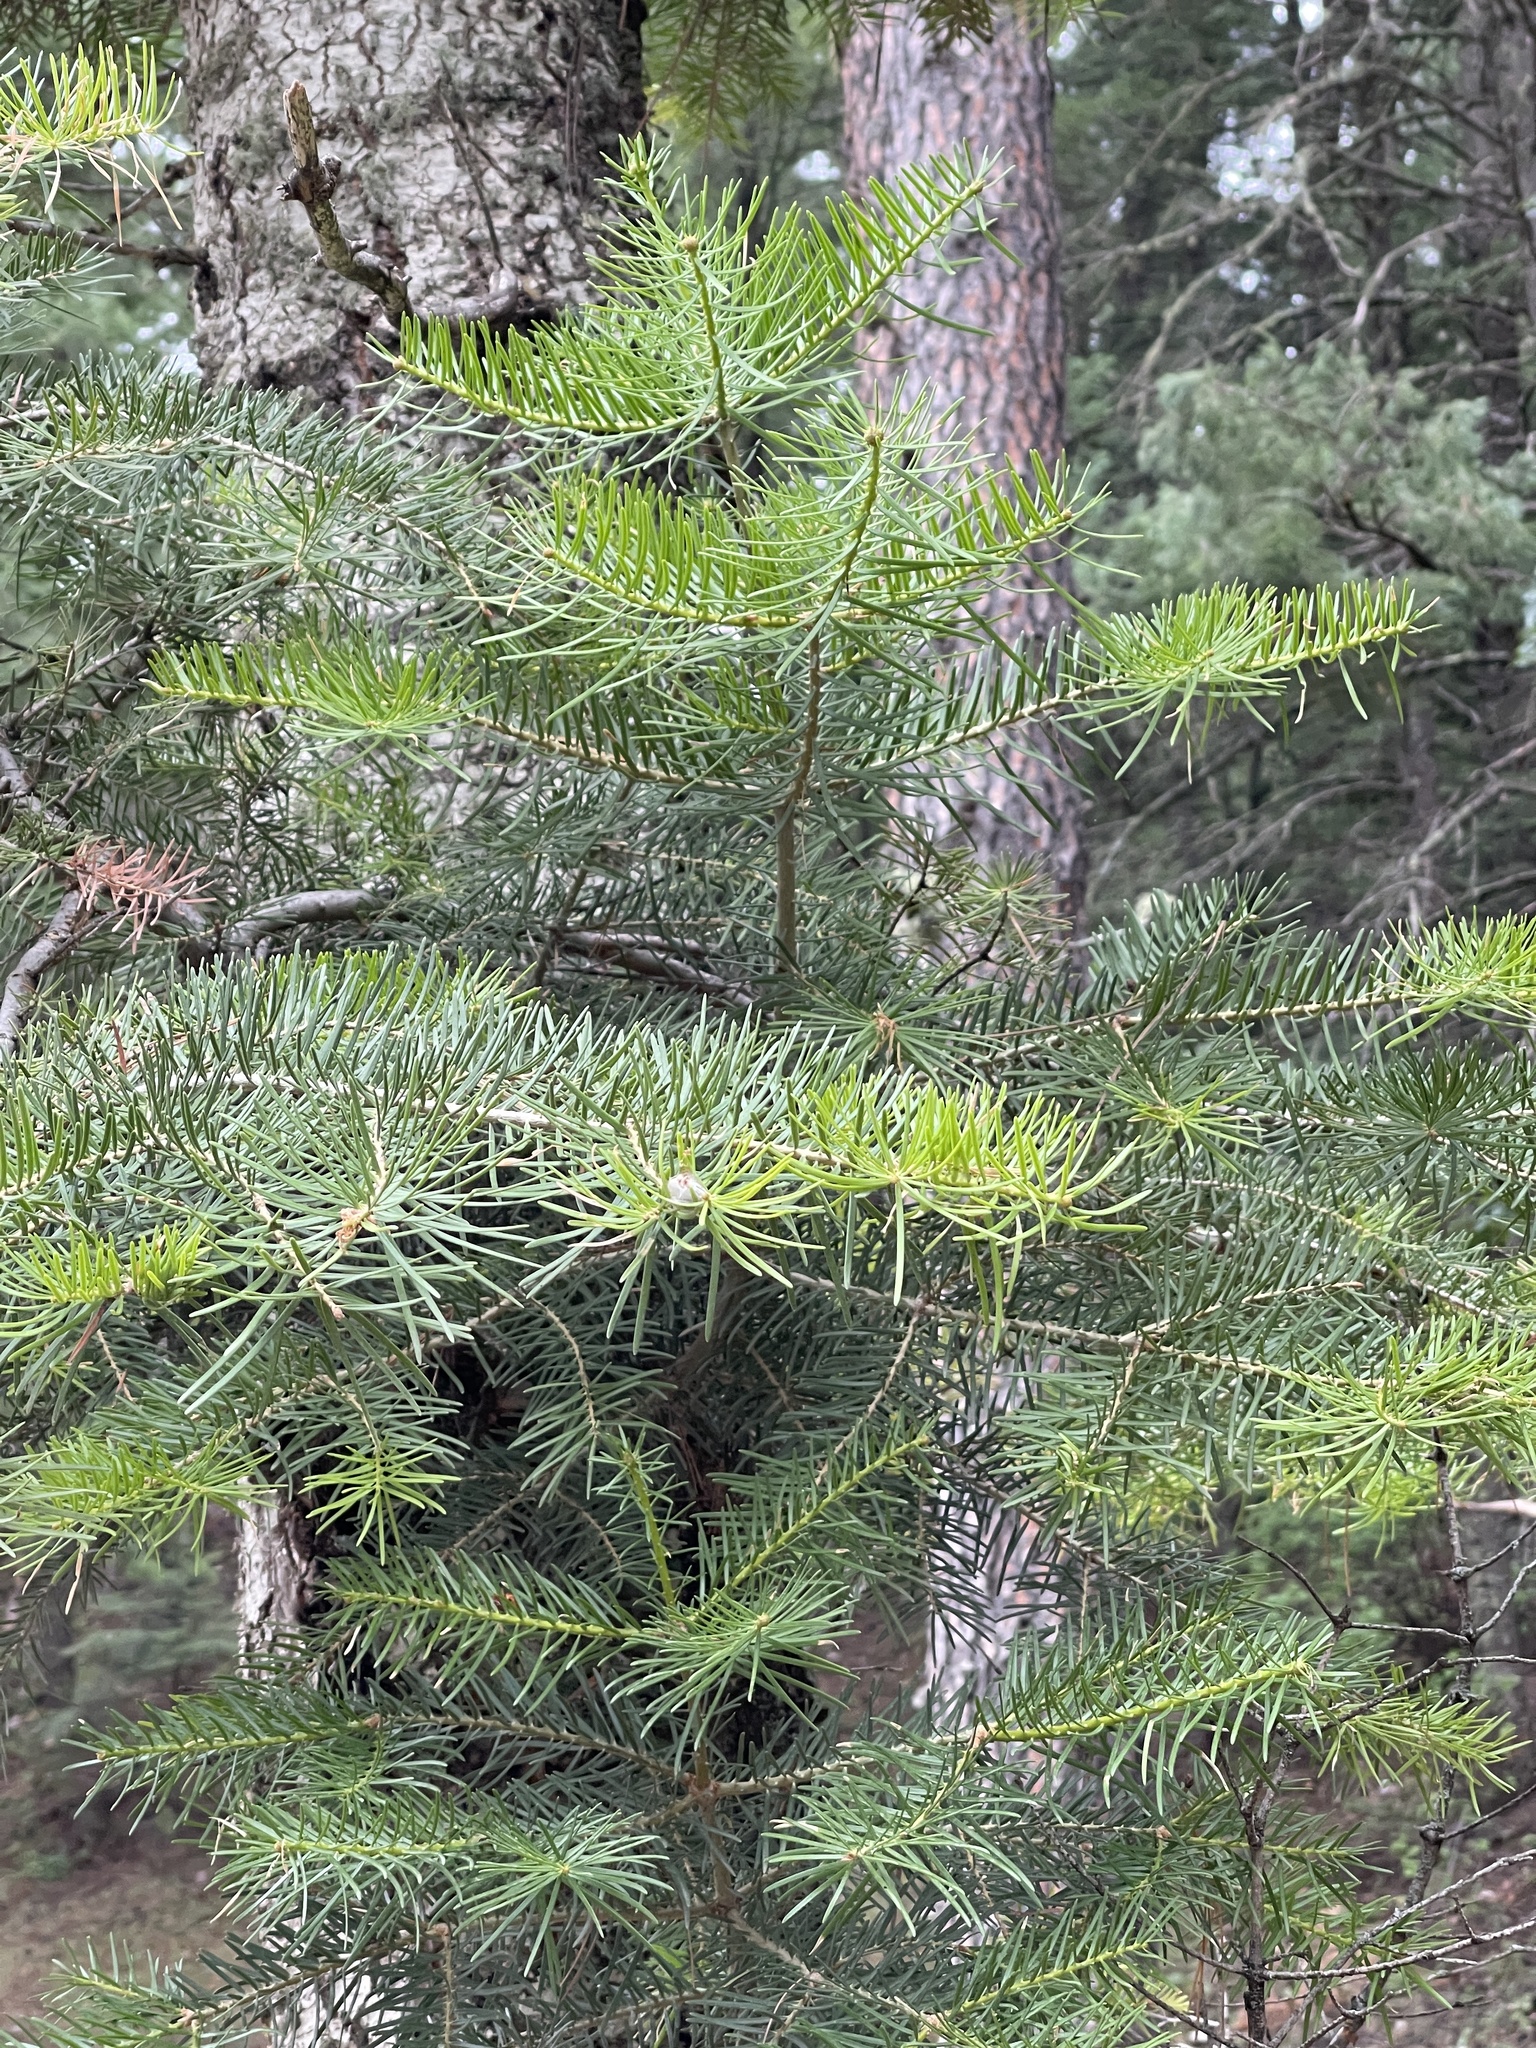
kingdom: Plantae
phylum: Tracheophyta
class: Pinopsida
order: Pinales
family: Pinaceae
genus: Abies
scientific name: Abies concolor
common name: Colorado fir
